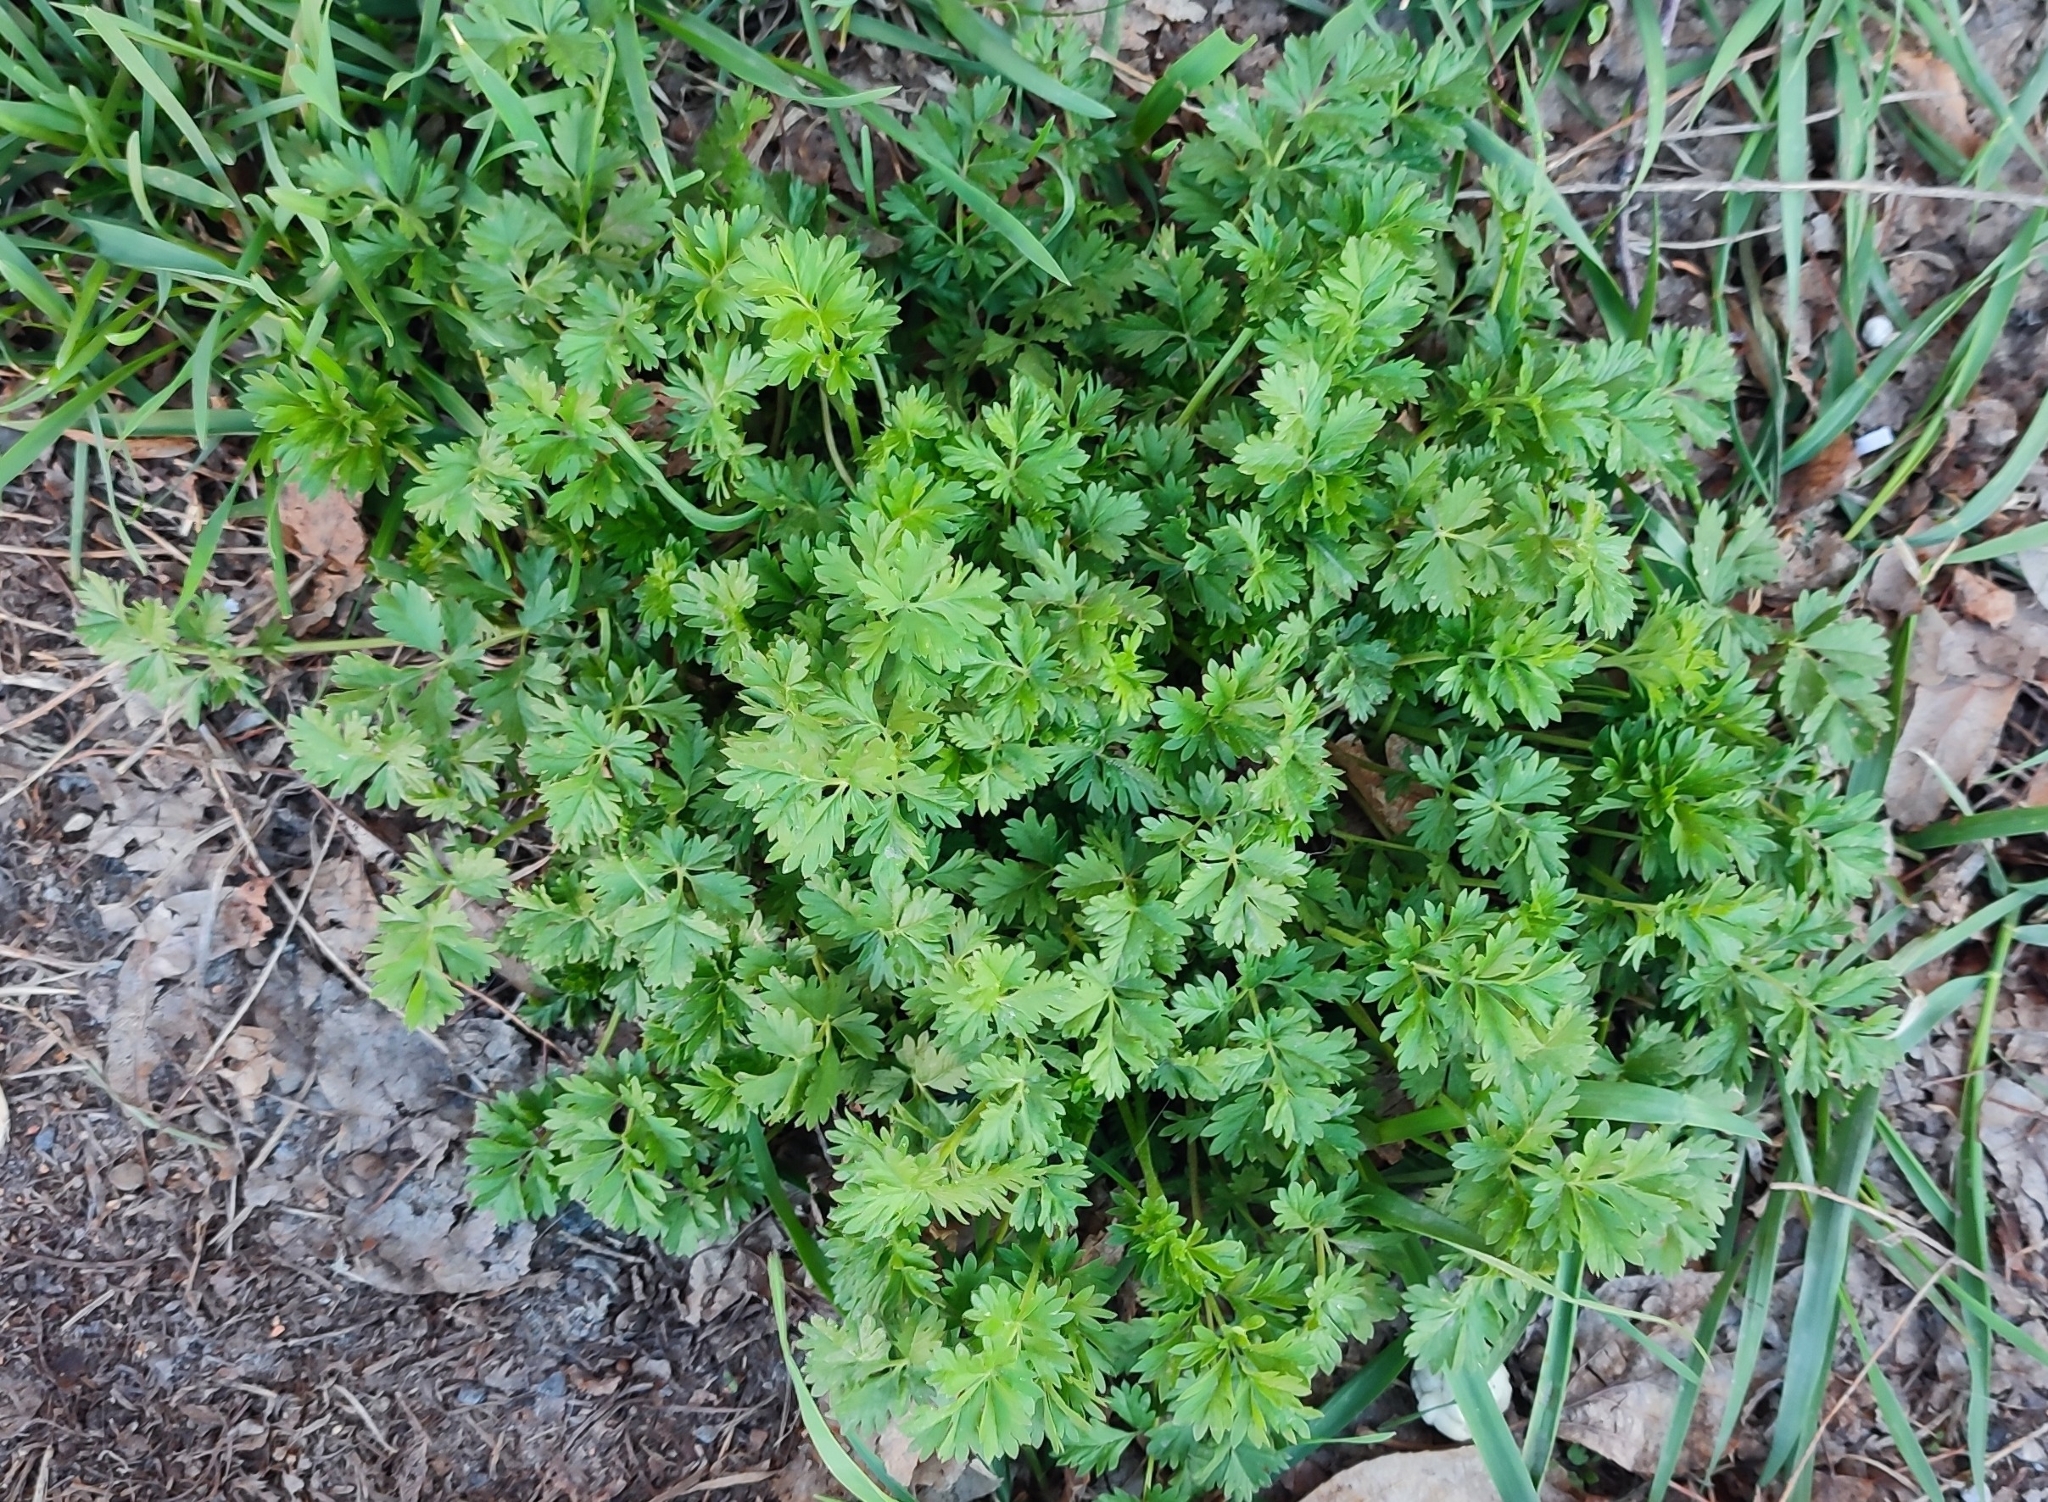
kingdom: Plantae
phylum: Tracheophyta
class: Magnoliopsida
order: Rosales
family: Rosaceae
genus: Potentilla
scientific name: Potentilla tobolensis
